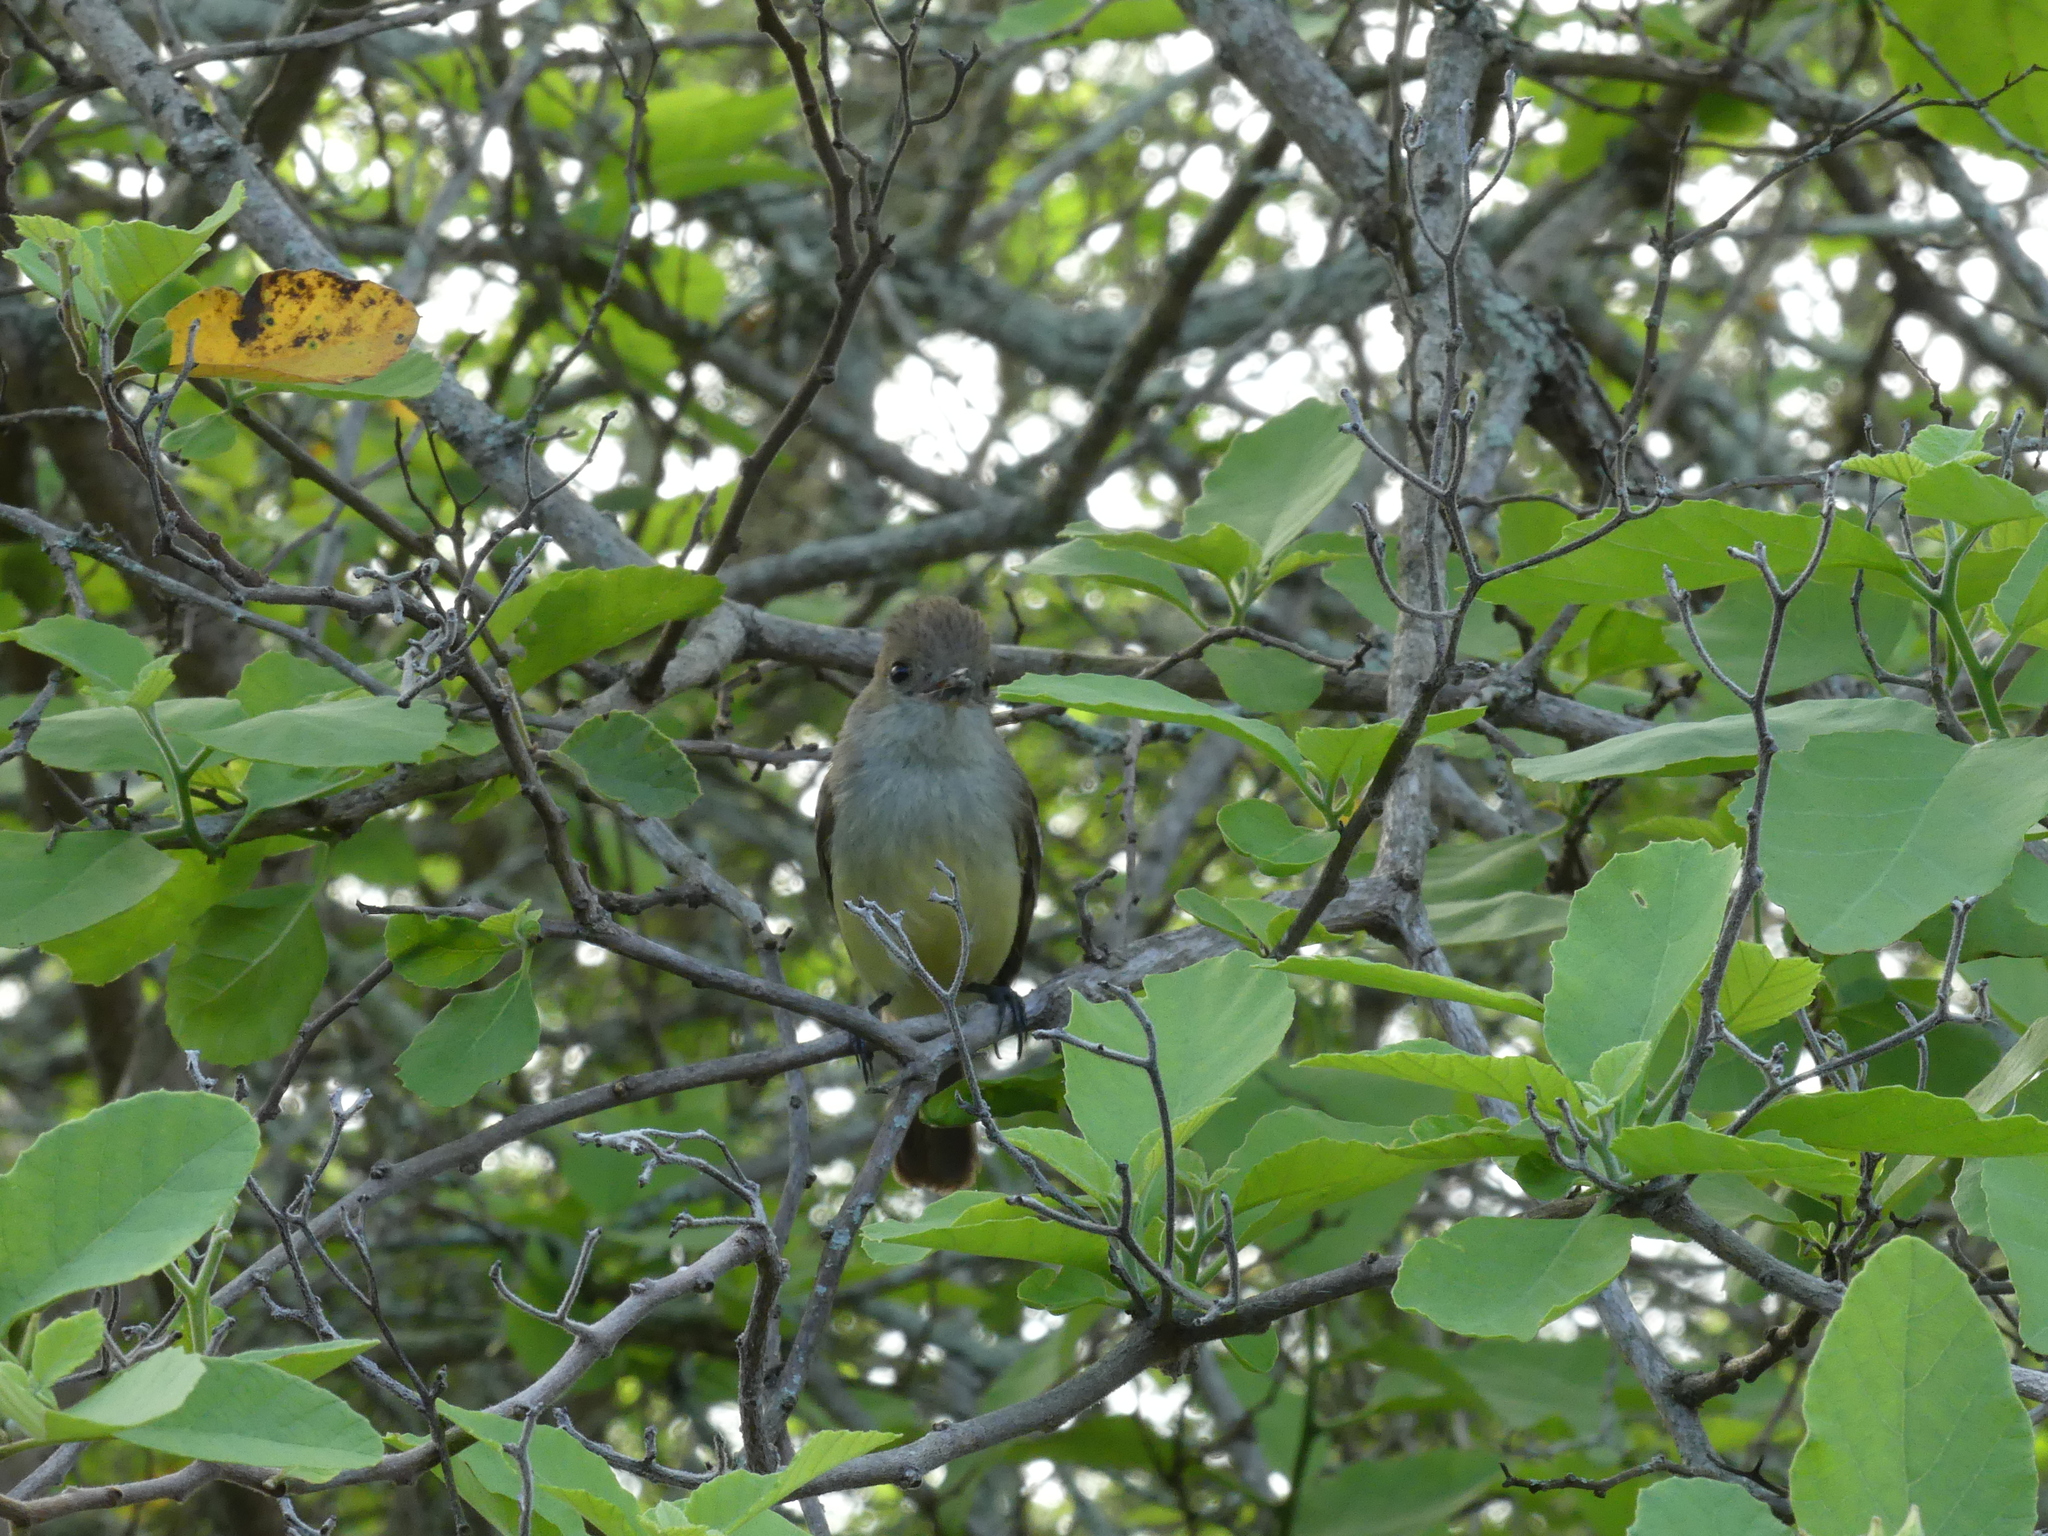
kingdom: Animalia
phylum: Chordata
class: Aves
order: Passeriformes
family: Tyrannidae
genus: Myiarchus
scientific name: Myiarchus magnirostris
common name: Galapagos flycatcher
